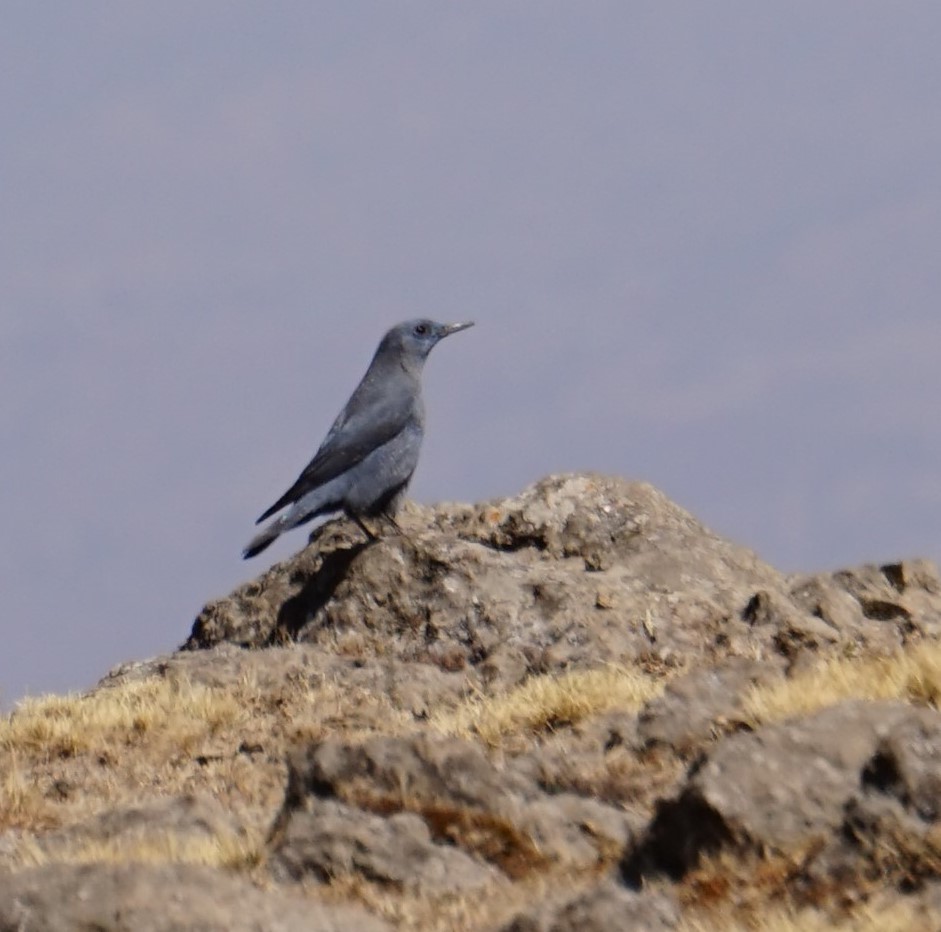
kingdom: Animalia
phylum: Chordata
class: Aves
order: Passeriformes
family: Muscicapidae
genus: Monticola
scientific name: Monticola solitarius
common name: Blue rock thrush
